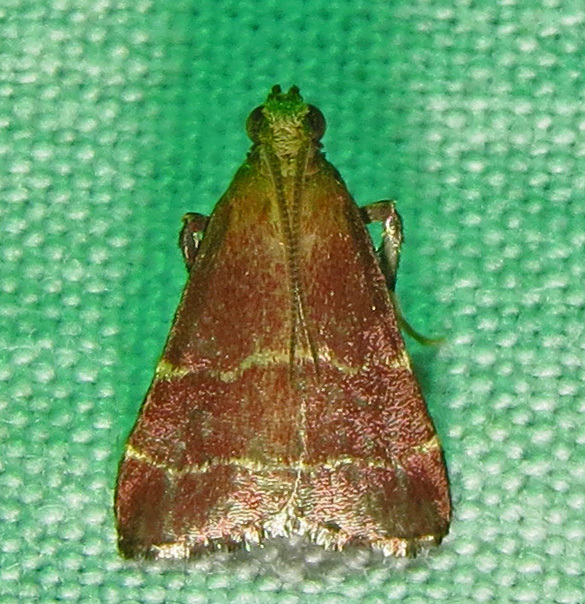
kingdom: Animalia
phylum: Arthropoda
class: Insecta
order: Lepidoptera
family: Pyralidae
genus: Arta
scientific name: Arta statalis
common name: Posturing arta moth
